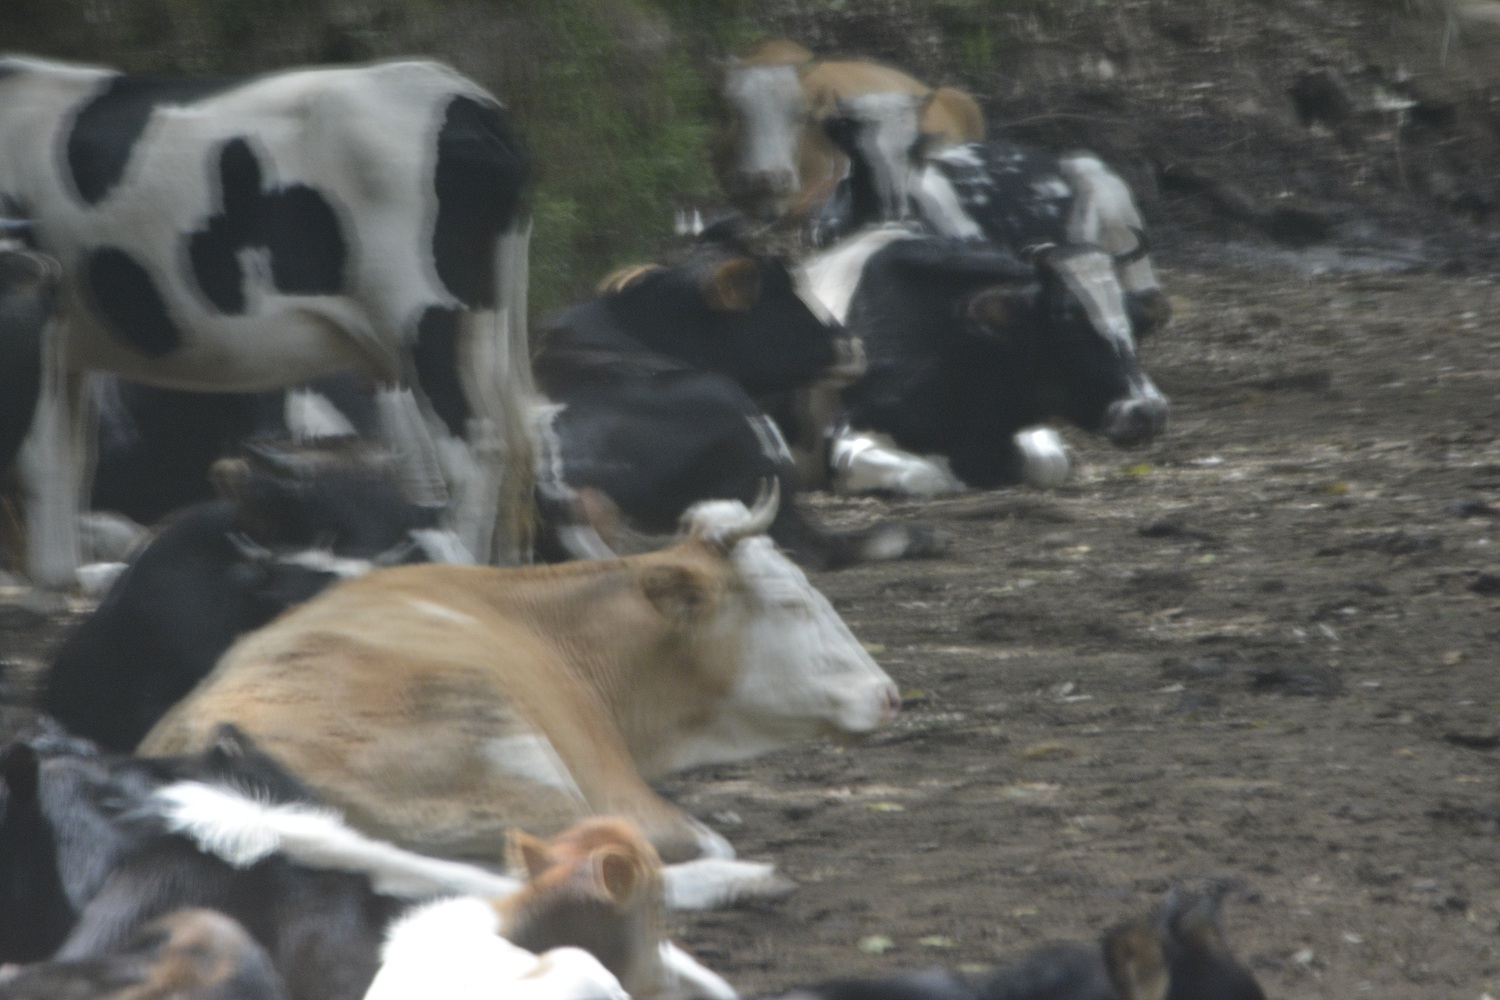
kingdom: Animalia
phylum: Chordata
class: Mammalia
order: Artiodactyla
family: Bovidae
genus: Bos
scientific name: Bos taurus
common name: Domesticated cattle
